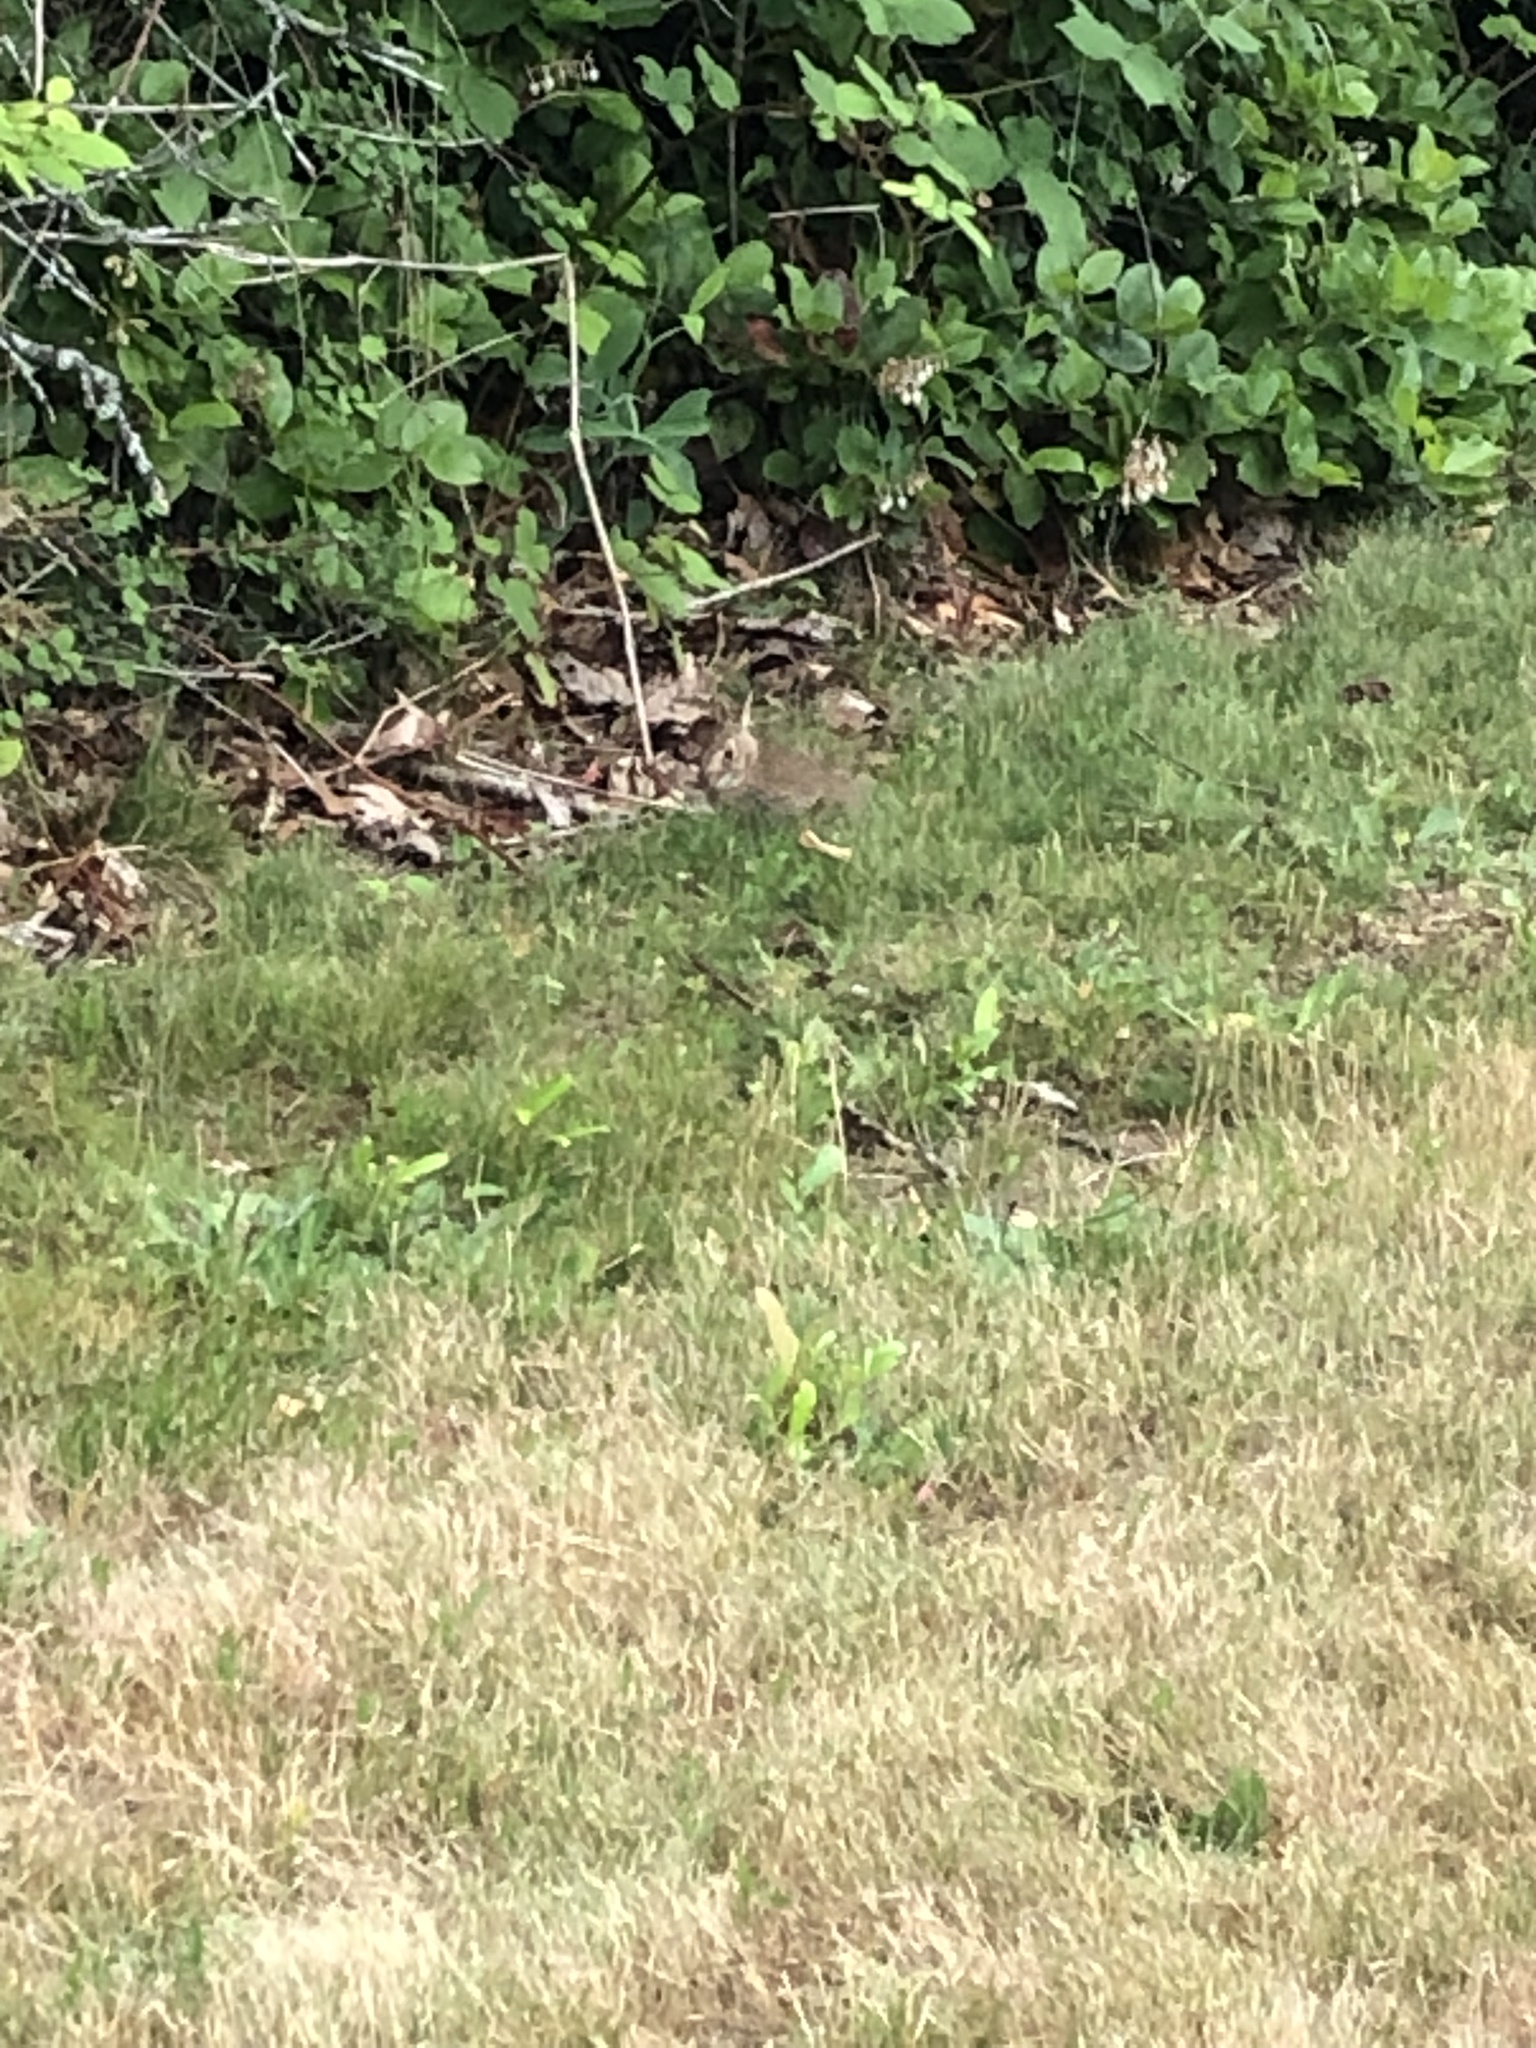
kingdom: Animalia
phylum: Chordata
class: Mammalia
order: Lagomorpha
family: Leporidae
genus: Sylvilagus
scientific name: Sylvilagus floridanus
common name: Eastern cottontail
